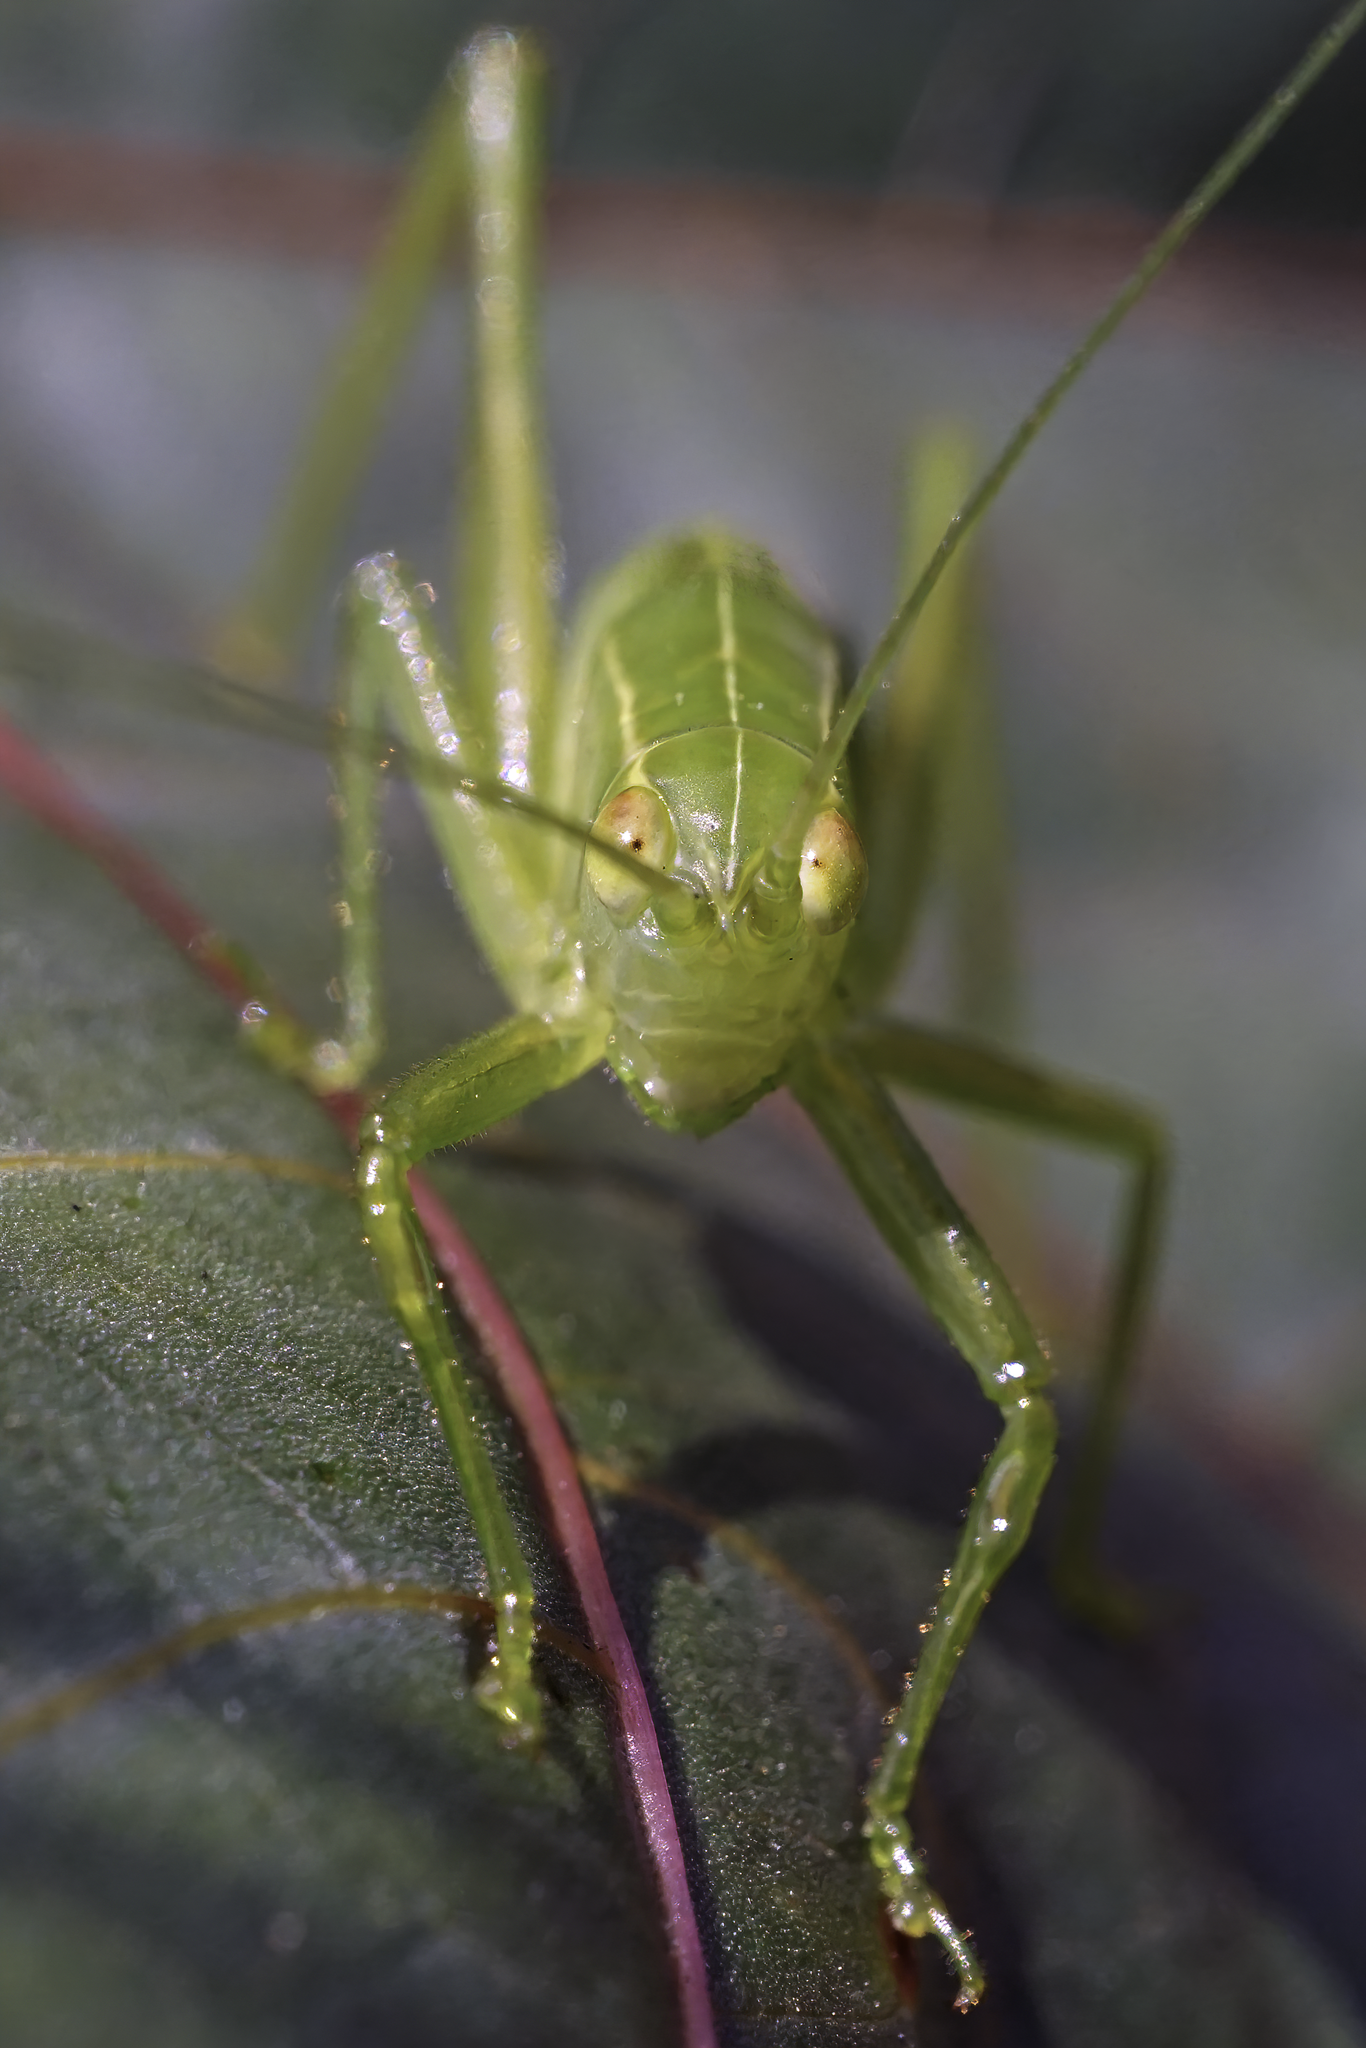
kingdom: Animalia
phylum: Arthropoda
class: Insecta
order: Orthoptera
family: Tettigoniidae
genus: Turpilia
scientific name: Turpilia rostrata
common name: Narrow-beaked katydid
